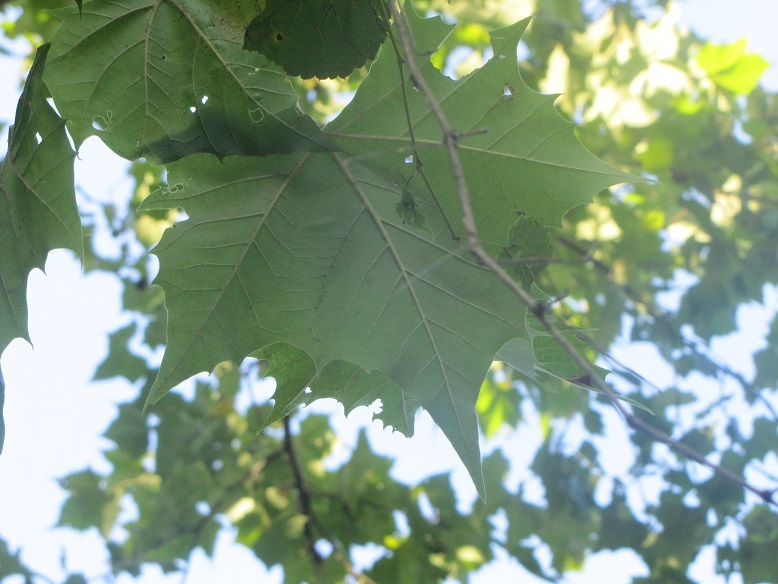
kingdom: Plantae
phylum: Tracheophyta
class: Magnoliopsida
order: Proteales
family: Platanaceae
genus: Platanus
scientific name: Platanus occidentalis
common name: American sycamore
